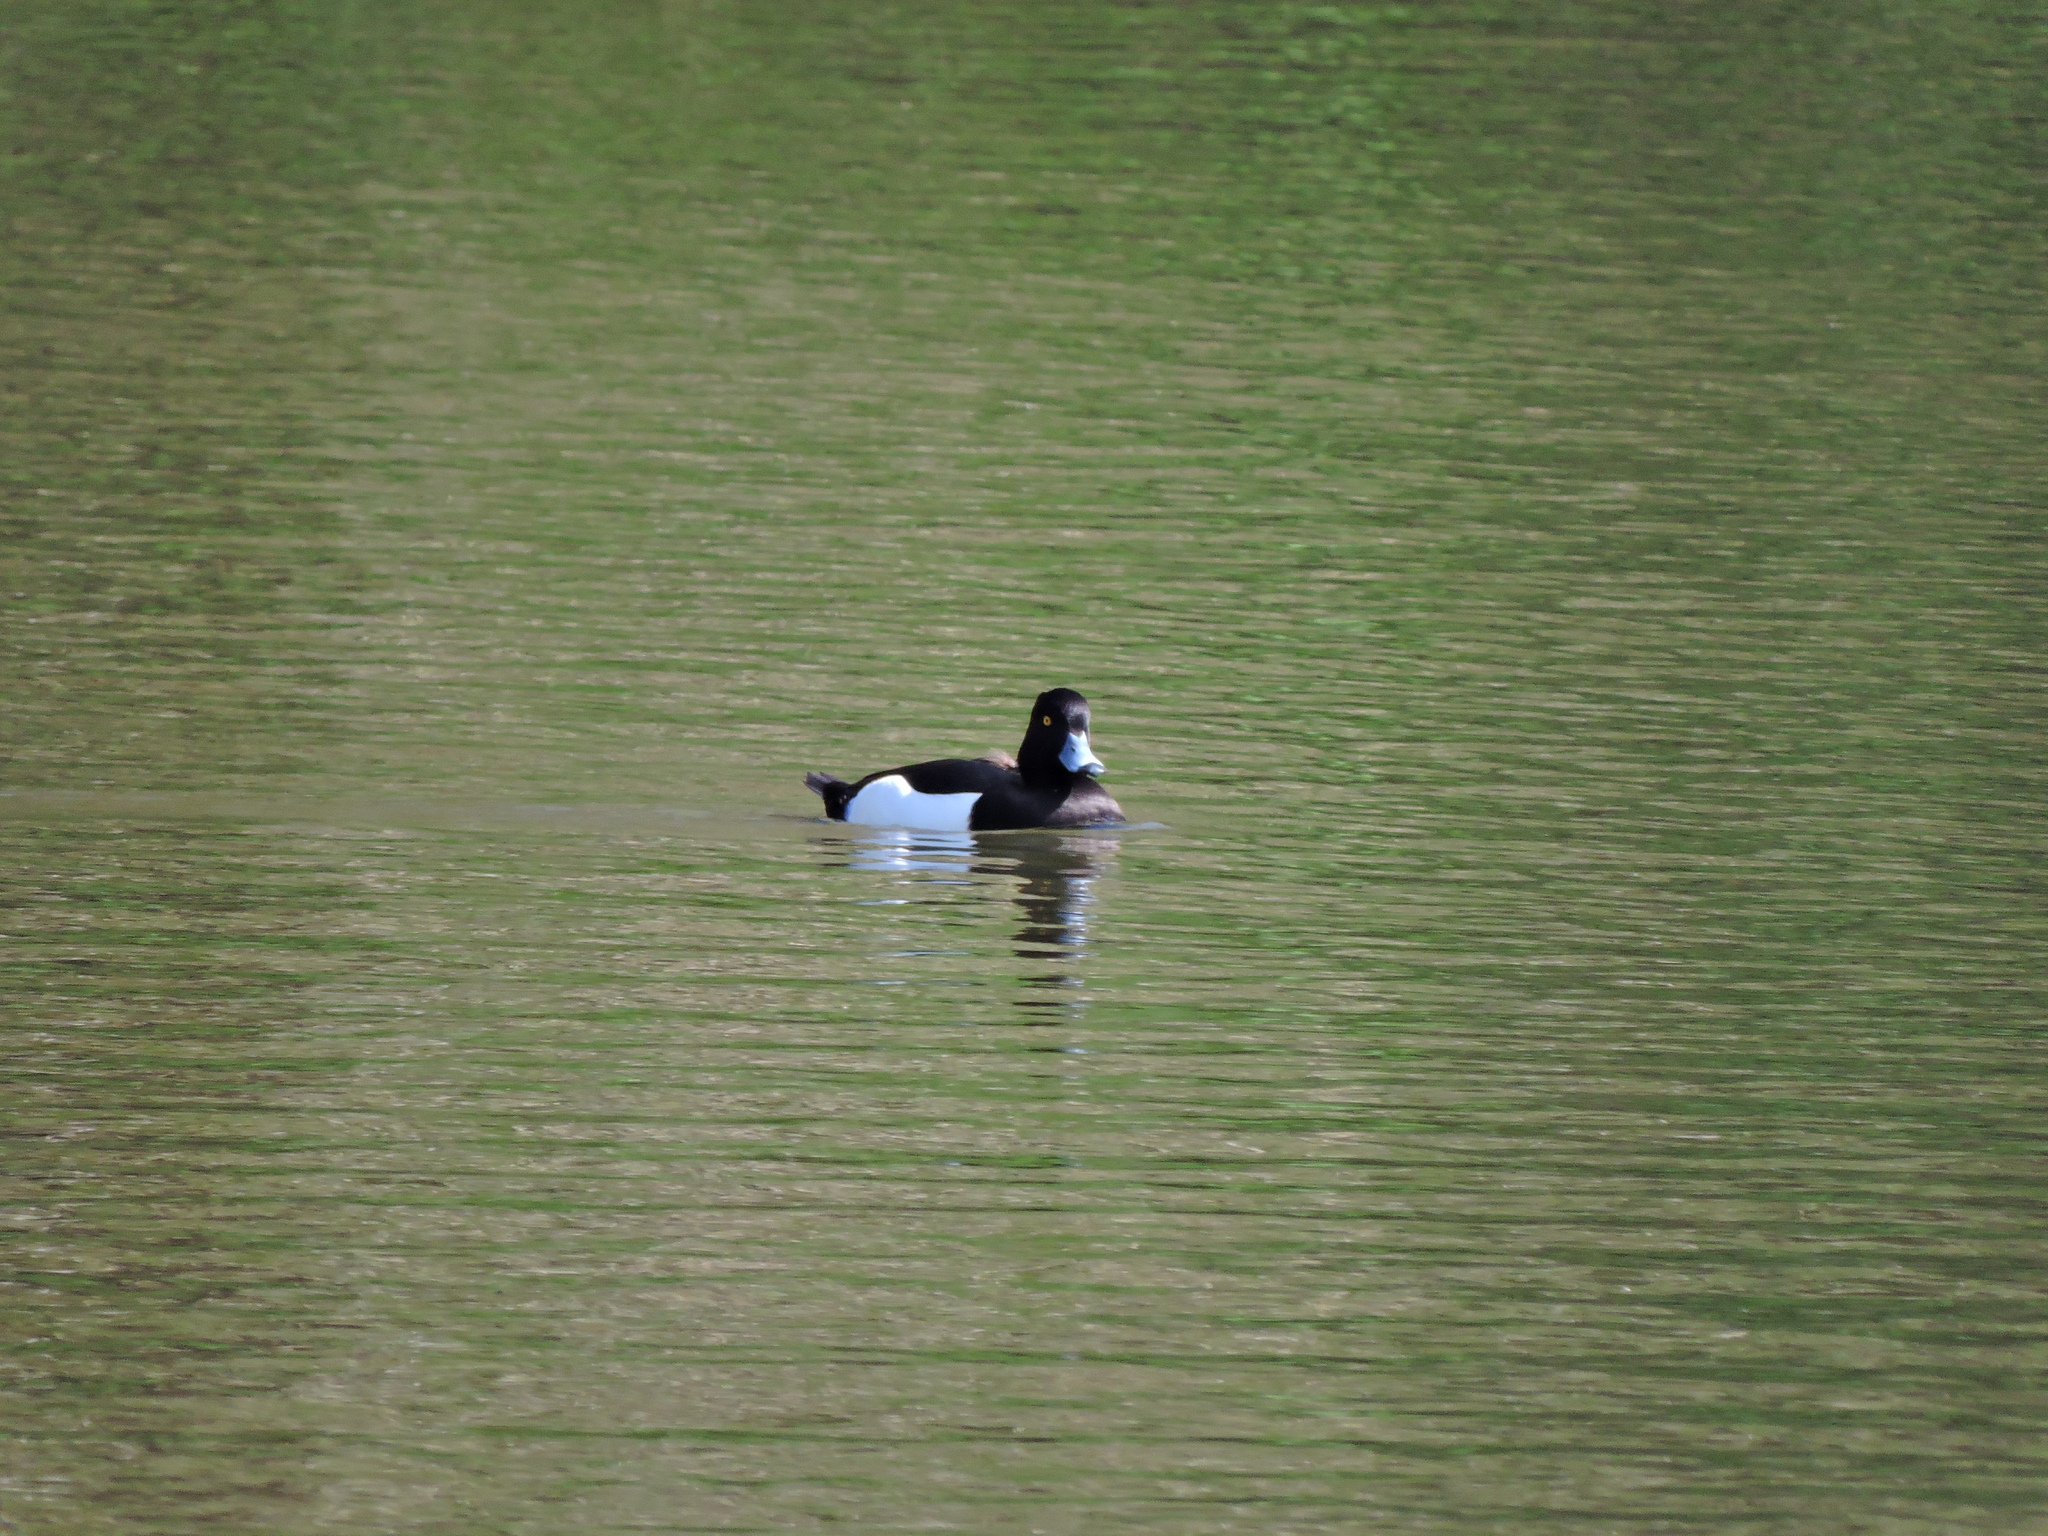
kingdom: Animalia
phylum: Chordata
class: Aves
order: Anseriformes
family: Anatidae
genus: Aythya
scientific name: Aythya fuligula
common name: Tufted duck
